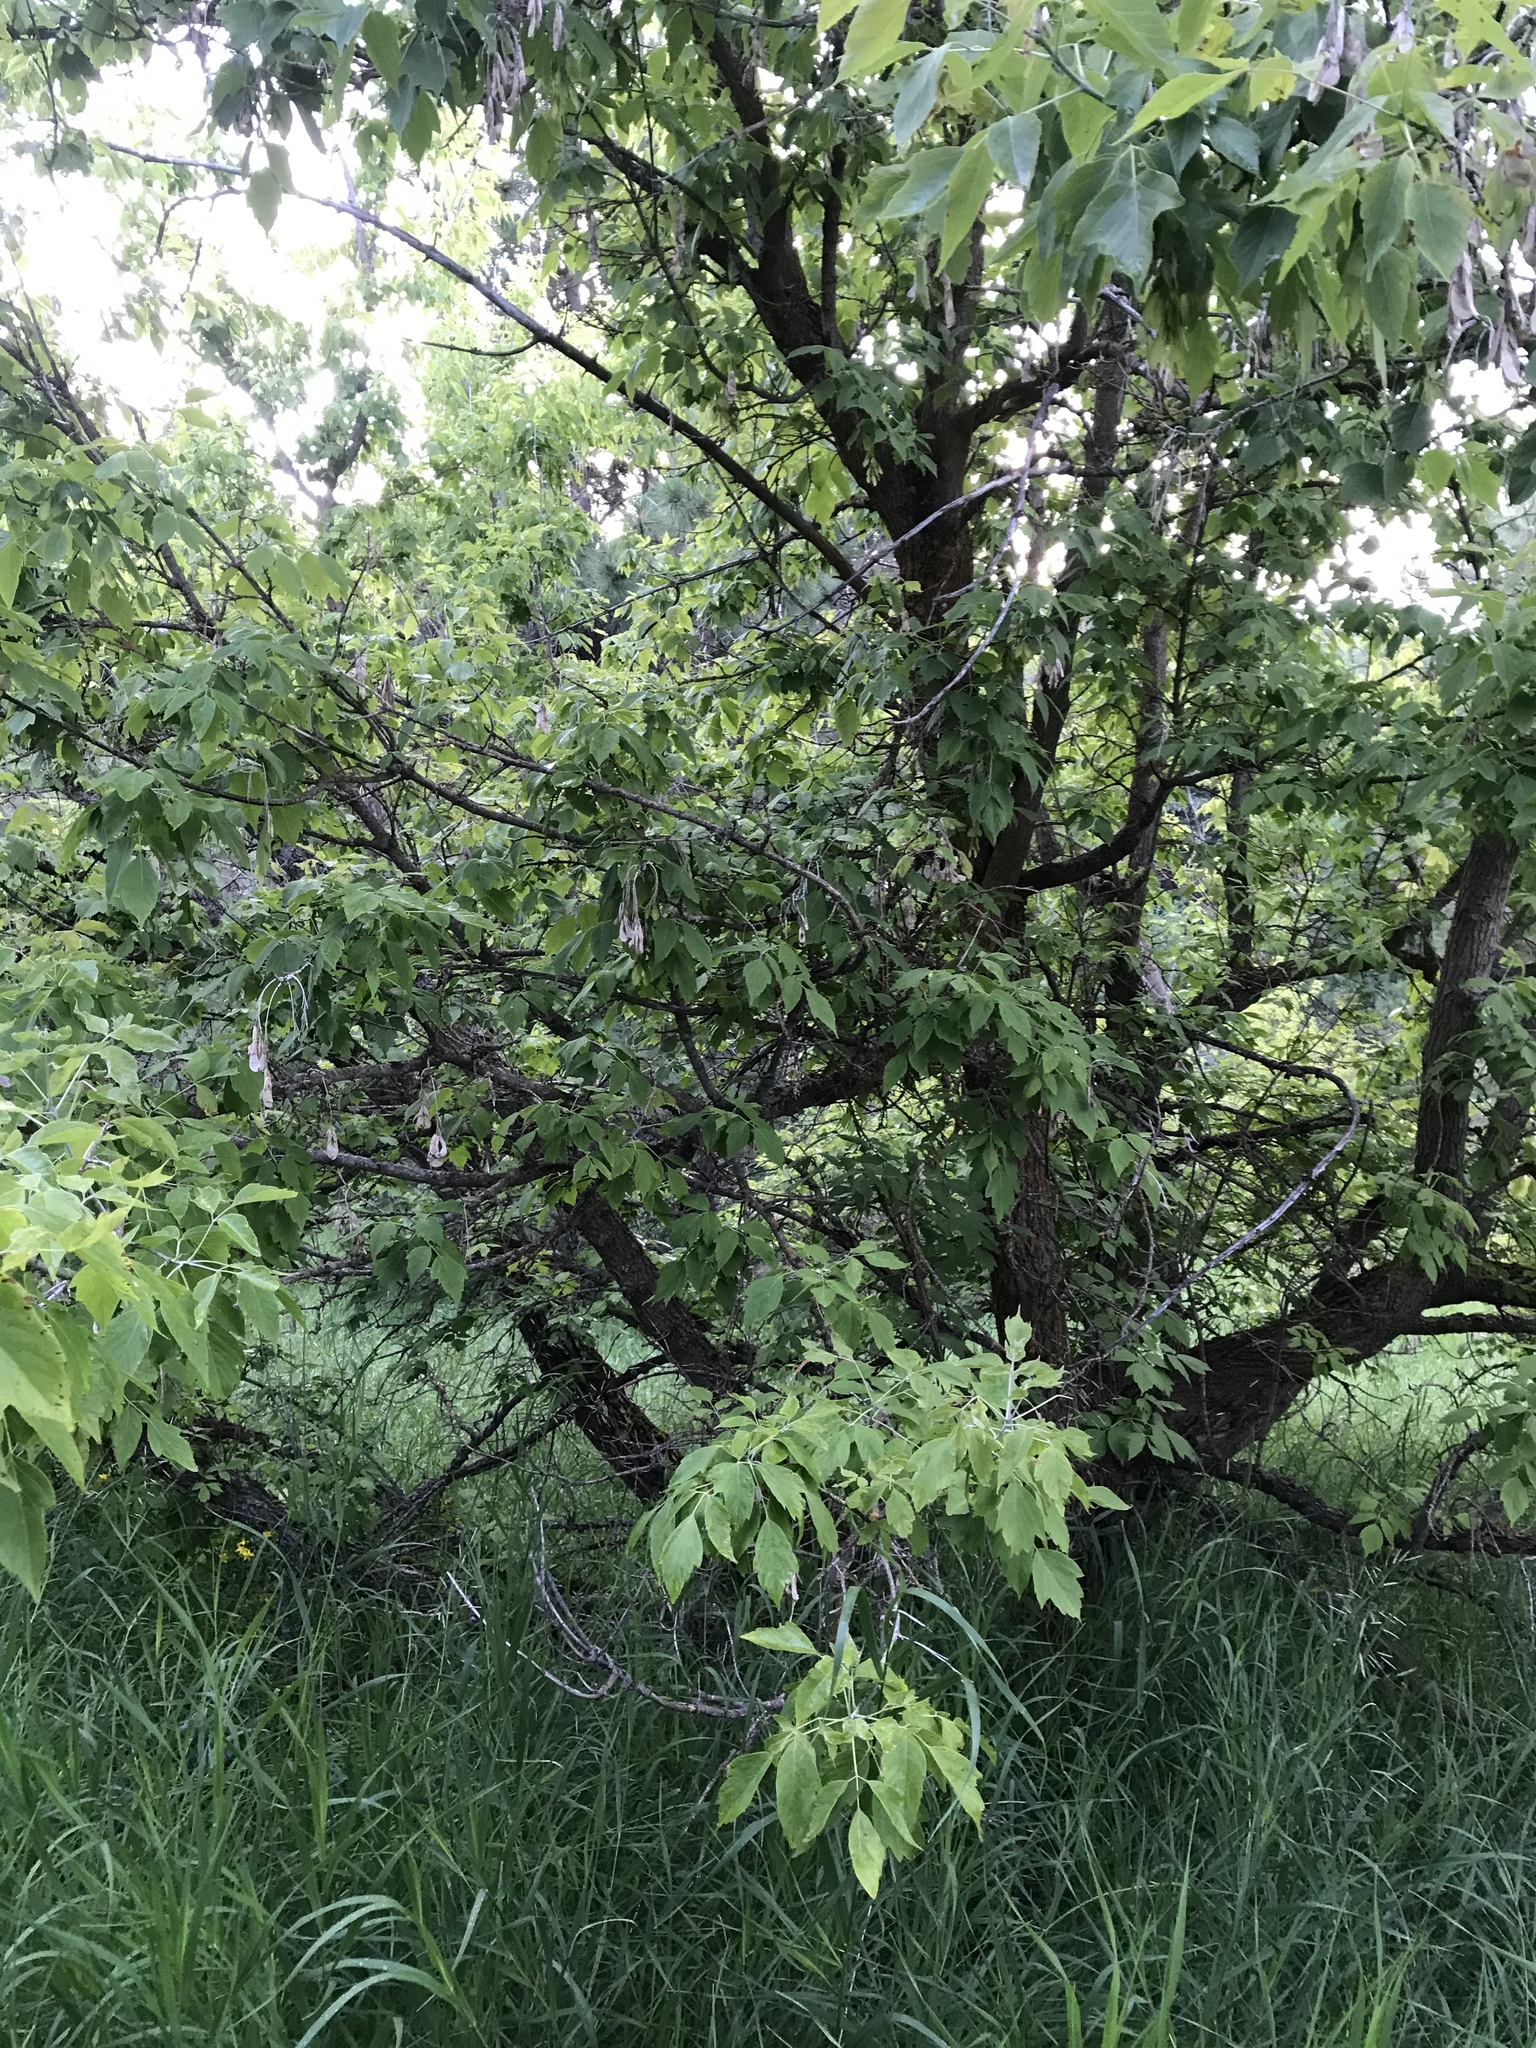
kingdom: Plantae
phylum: Tracheophyta
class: Magnoliopsida
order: Sapindales
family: Sapindaceae
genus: Acer
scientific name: Acer negundo
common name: Ashleaf maple
